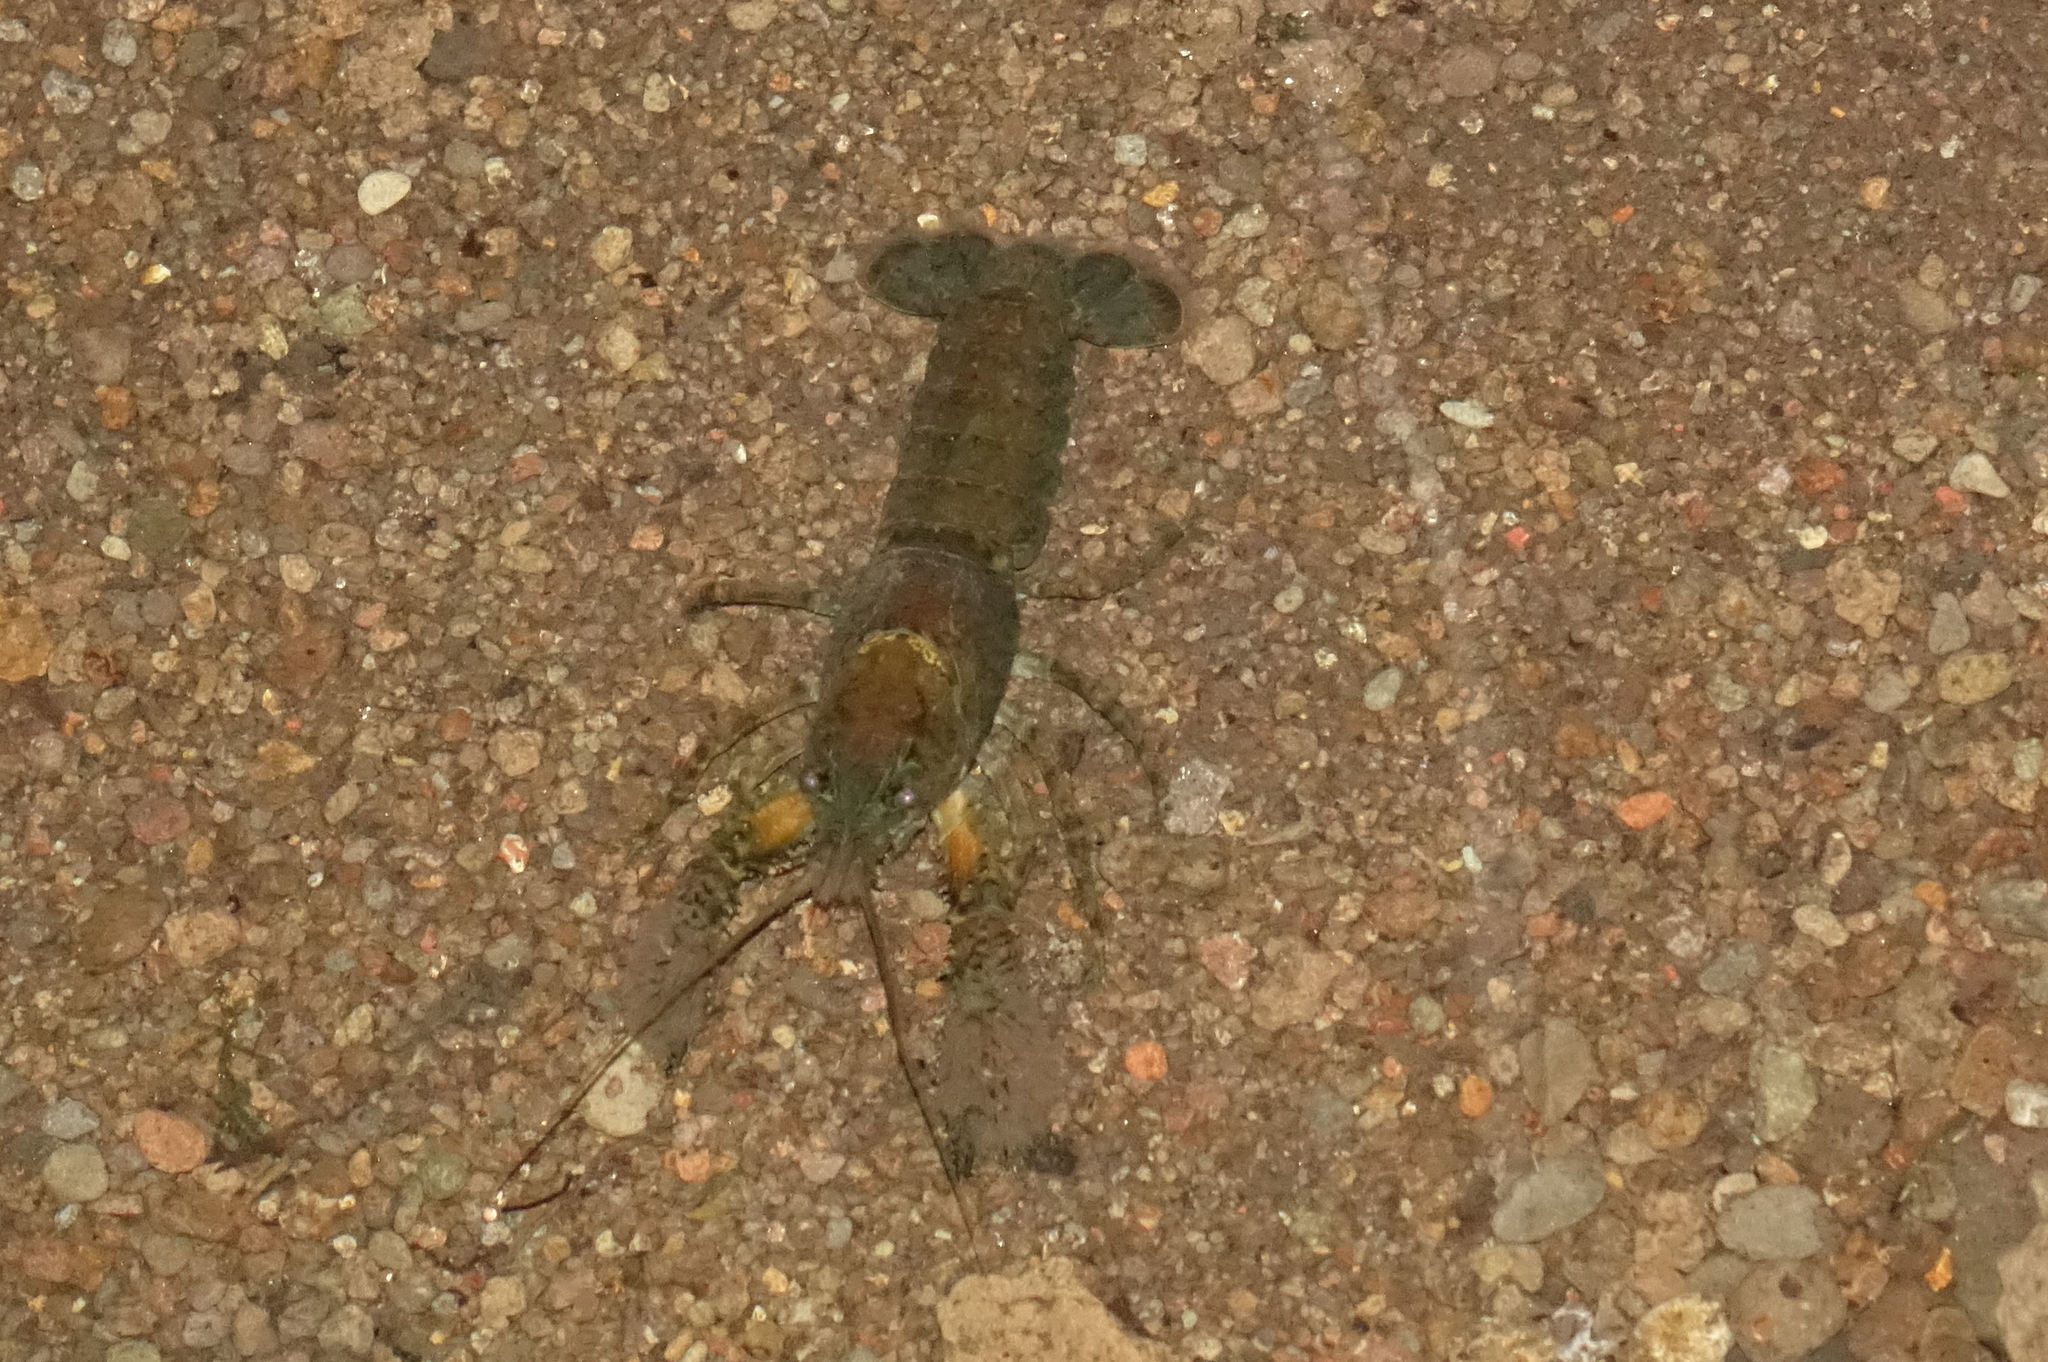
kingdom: Animalia
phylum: Arthropoda
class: Malacostraca
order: Decapoda
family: Parastacidae
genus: Paranephrops
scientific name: Paranephrops zealandicus
